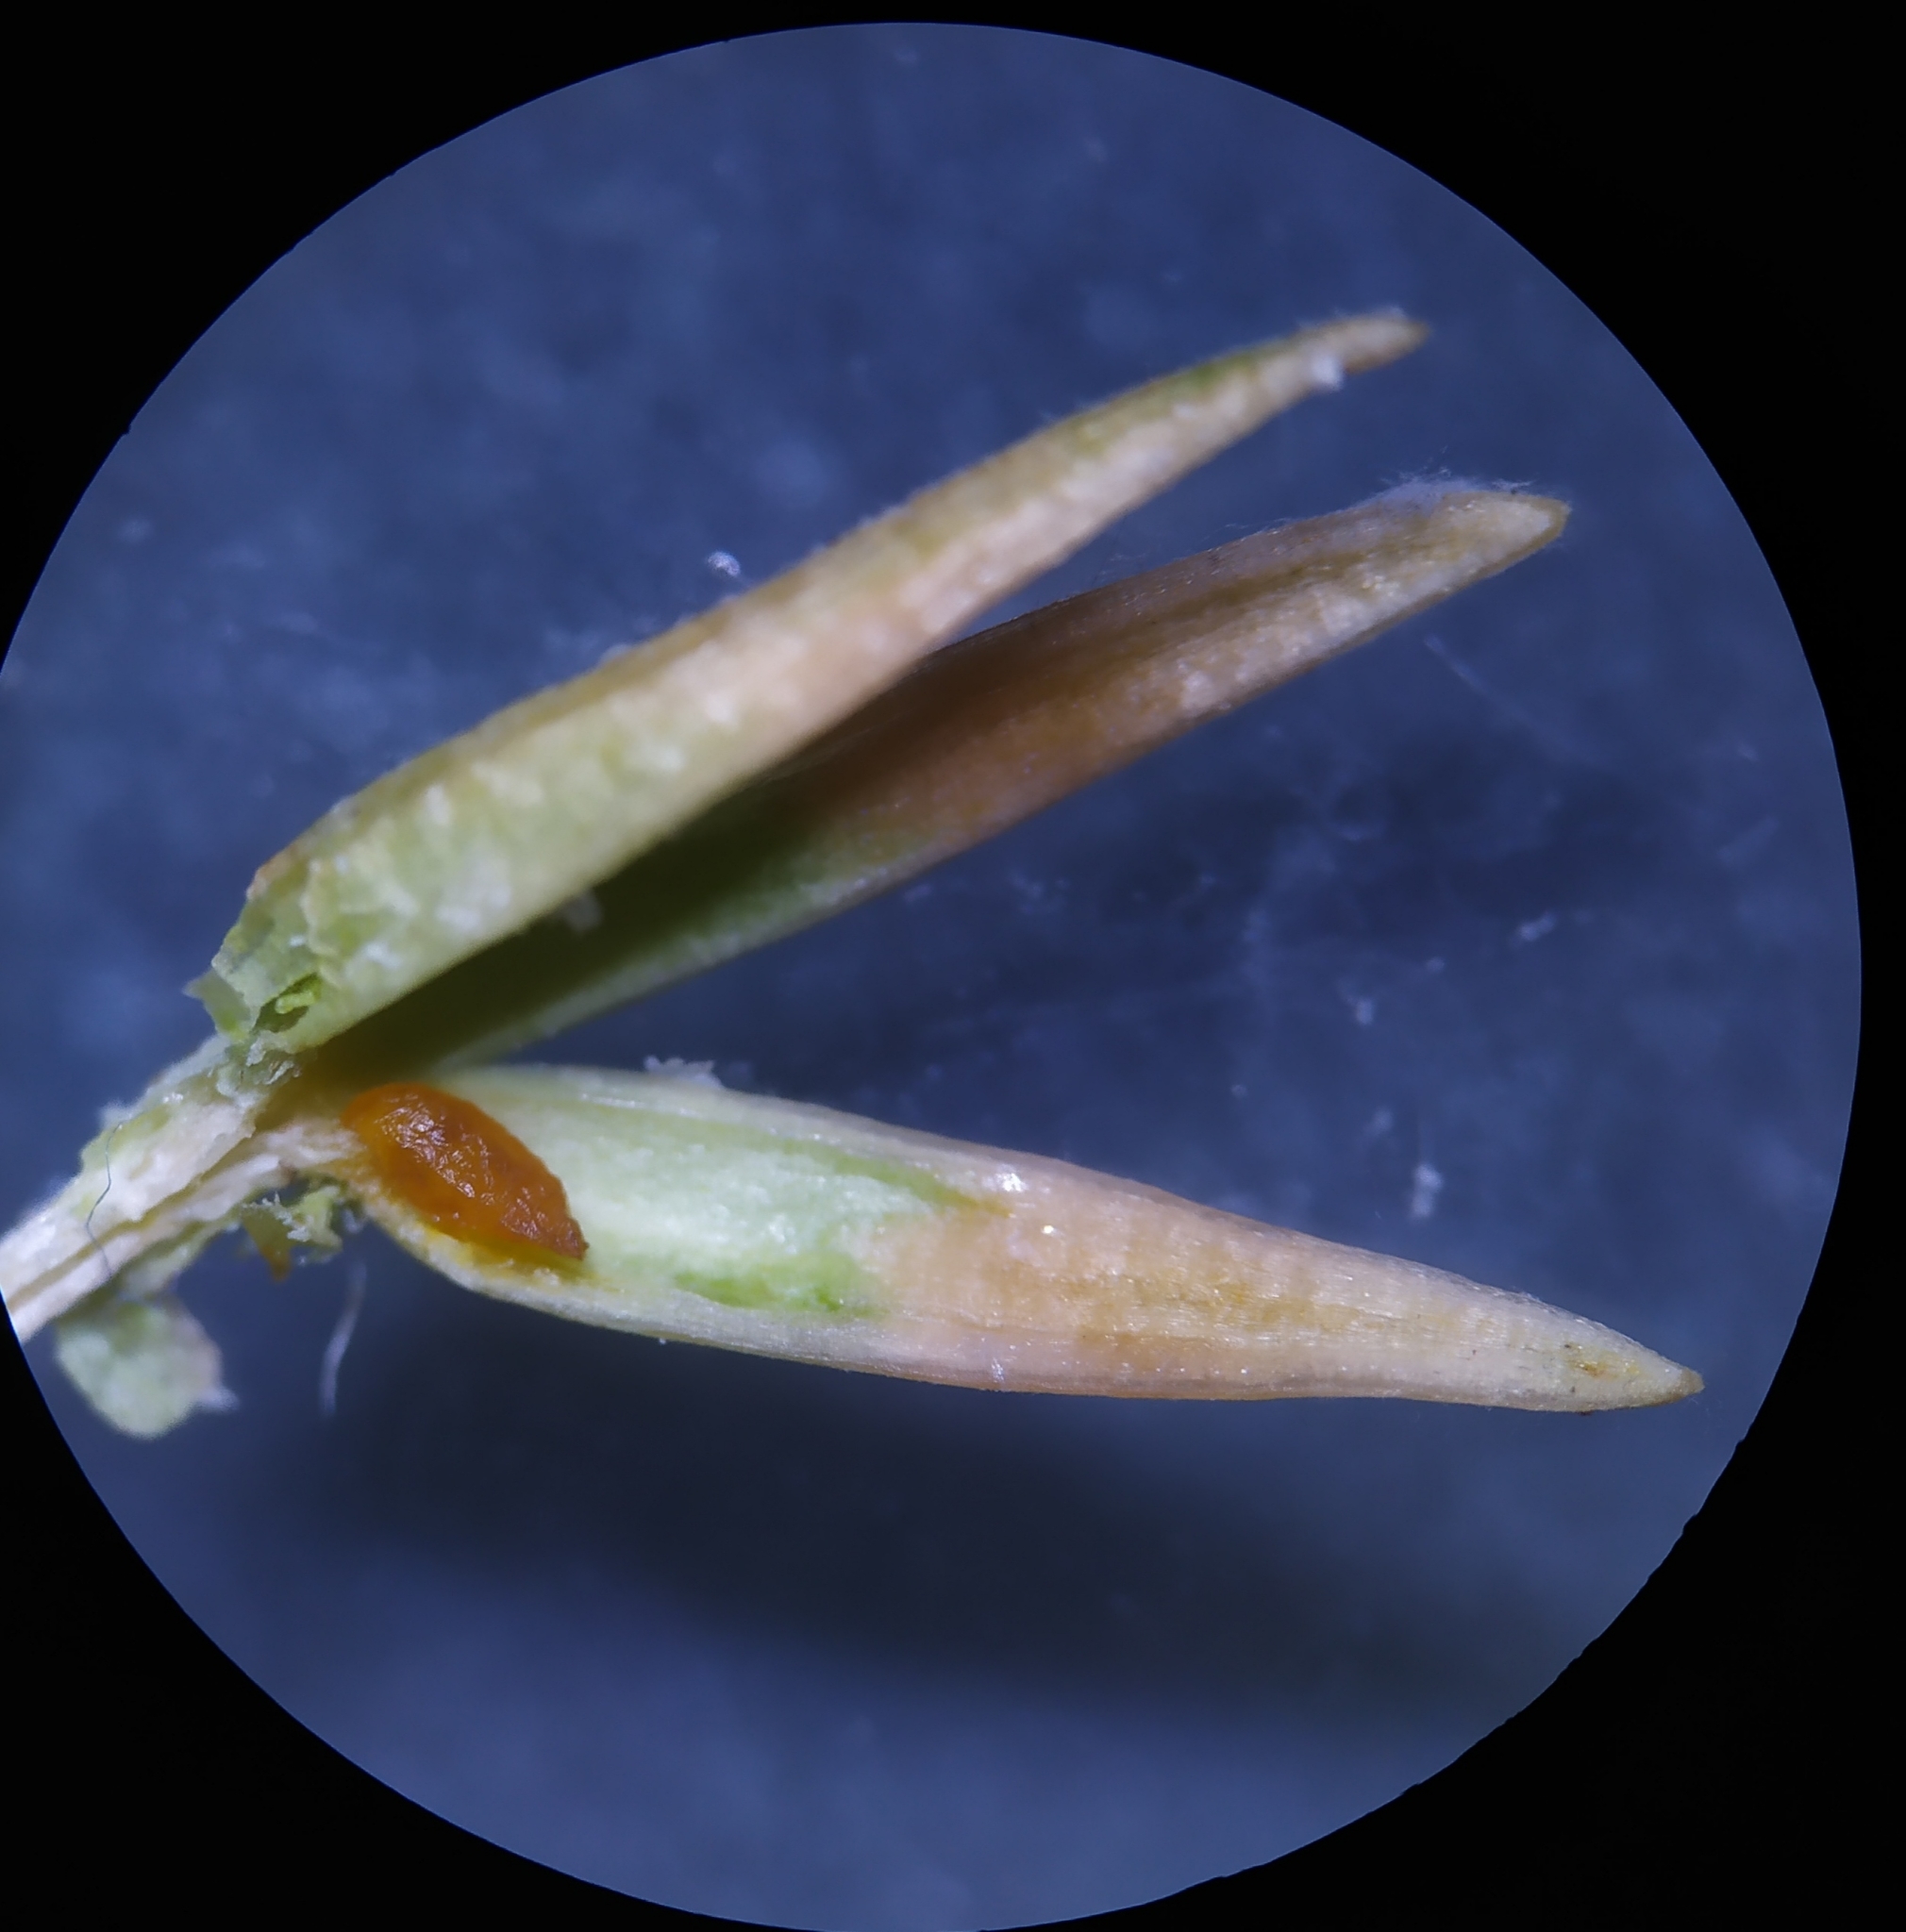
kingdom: Animalia
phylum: Arthropoda
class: Insecta
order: Diptera
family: Cecidomyiidae
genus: Oligotrophus
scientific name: Oligotrophus juniperinus
